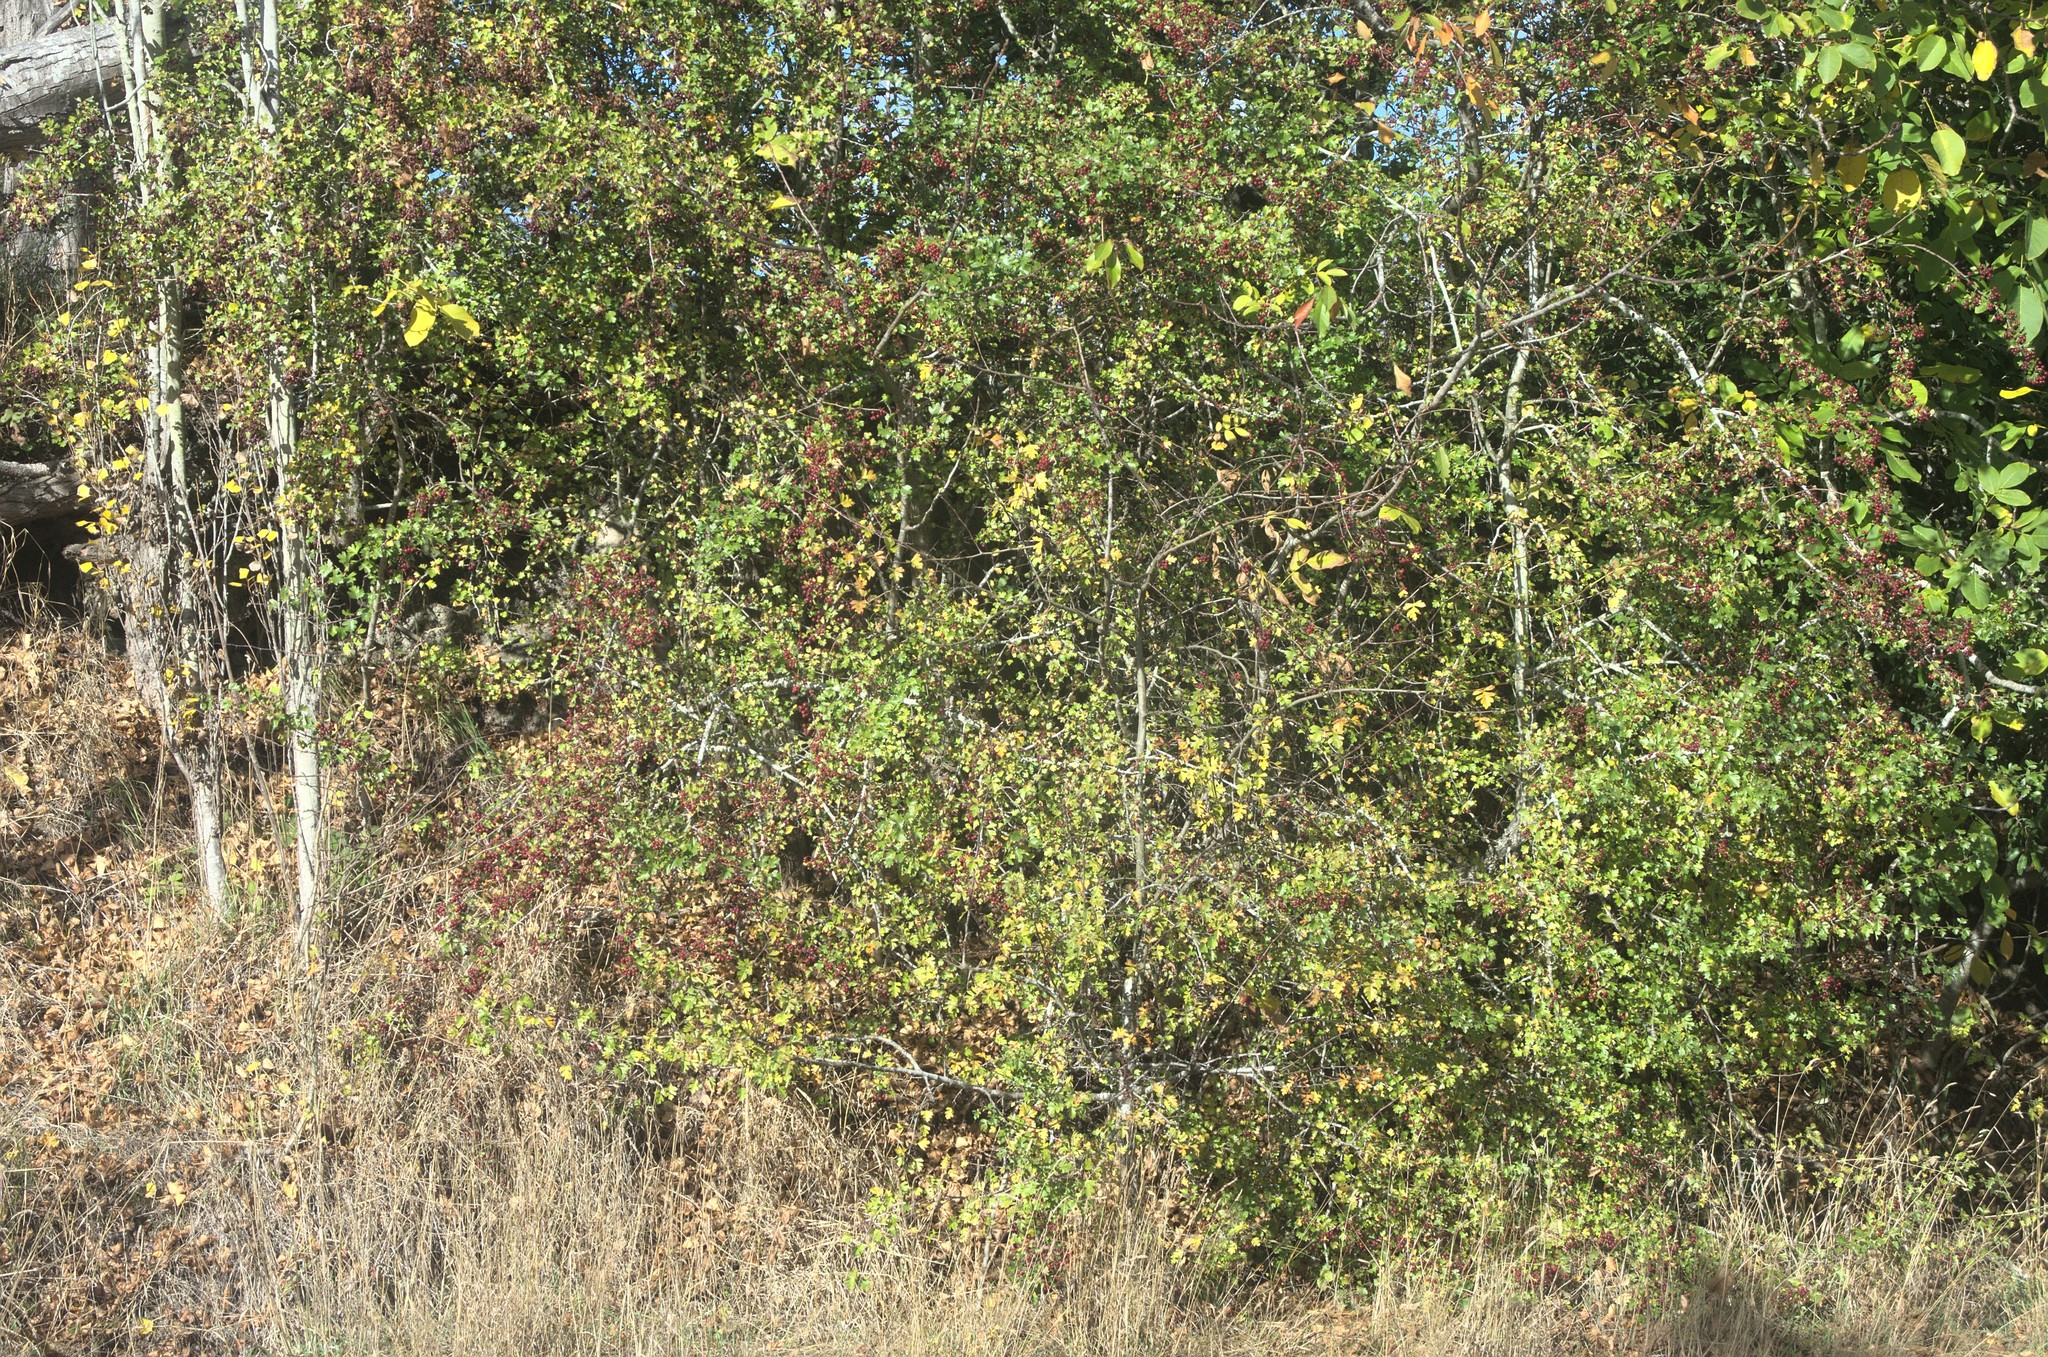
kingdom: Plantae
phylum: Tracheophyta
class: Magnoliopsida
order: Rosales
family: Rosaceae
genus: Crataegus
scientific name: Crataegus monogyna
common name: Hawthorn
